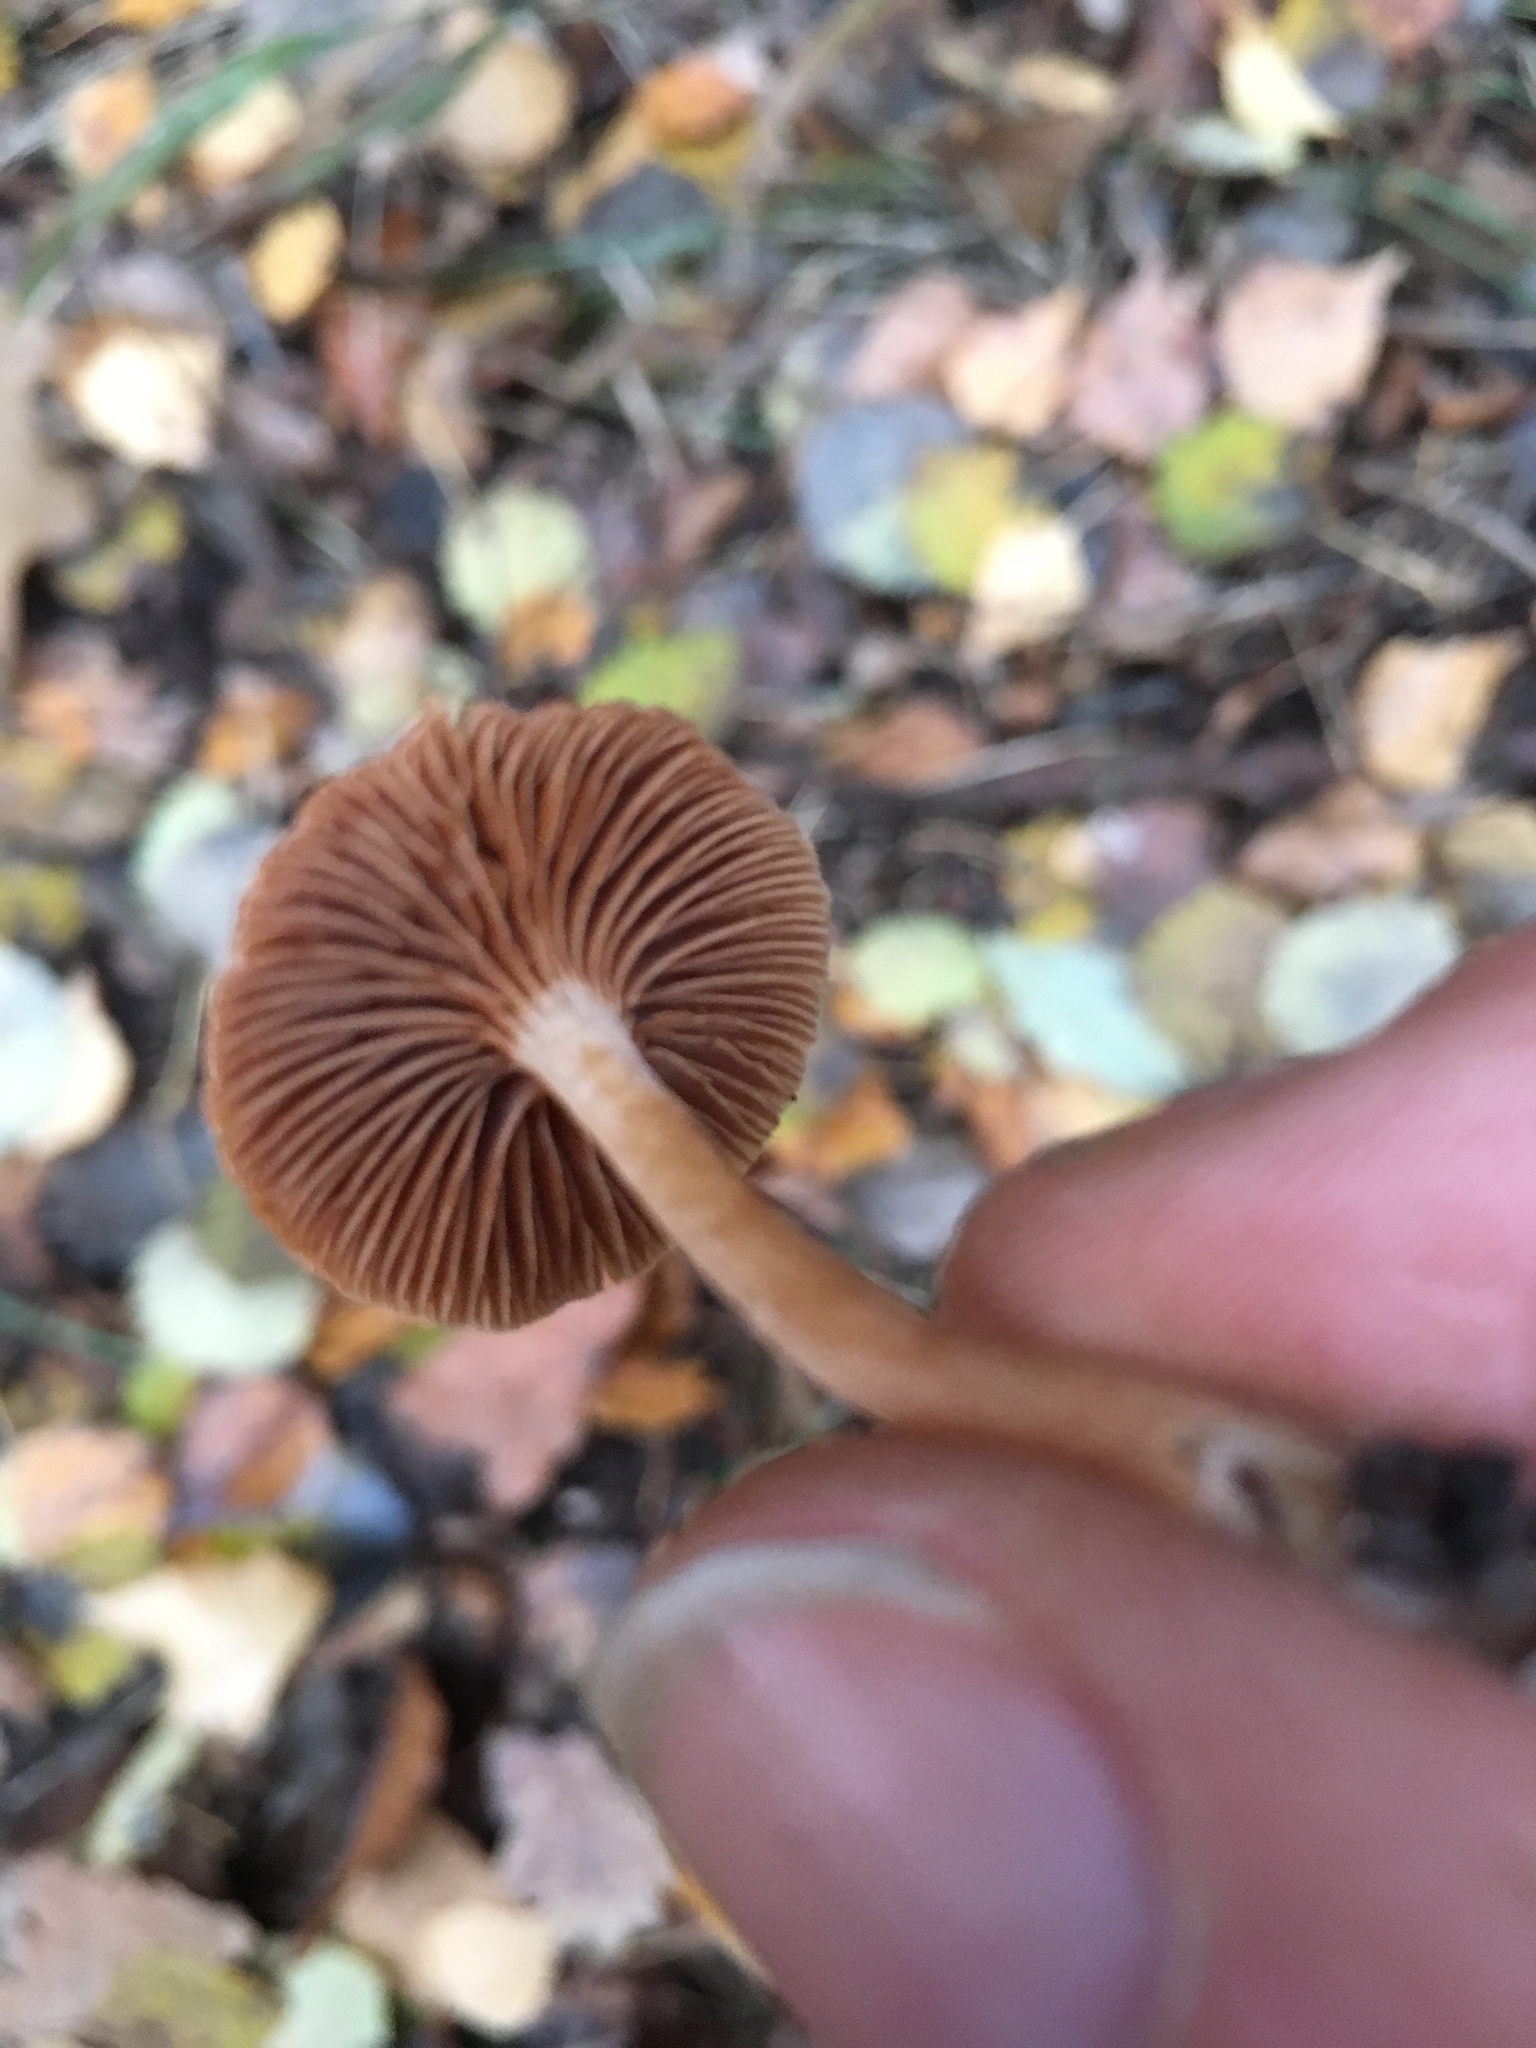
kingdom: Fungi
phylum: Basidiomycota
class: Agaricomycetes
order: Agaricales
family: Tubariaceae
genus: Tubaria
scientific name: Tubaria furfuracea
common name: Scurfy twiglet
